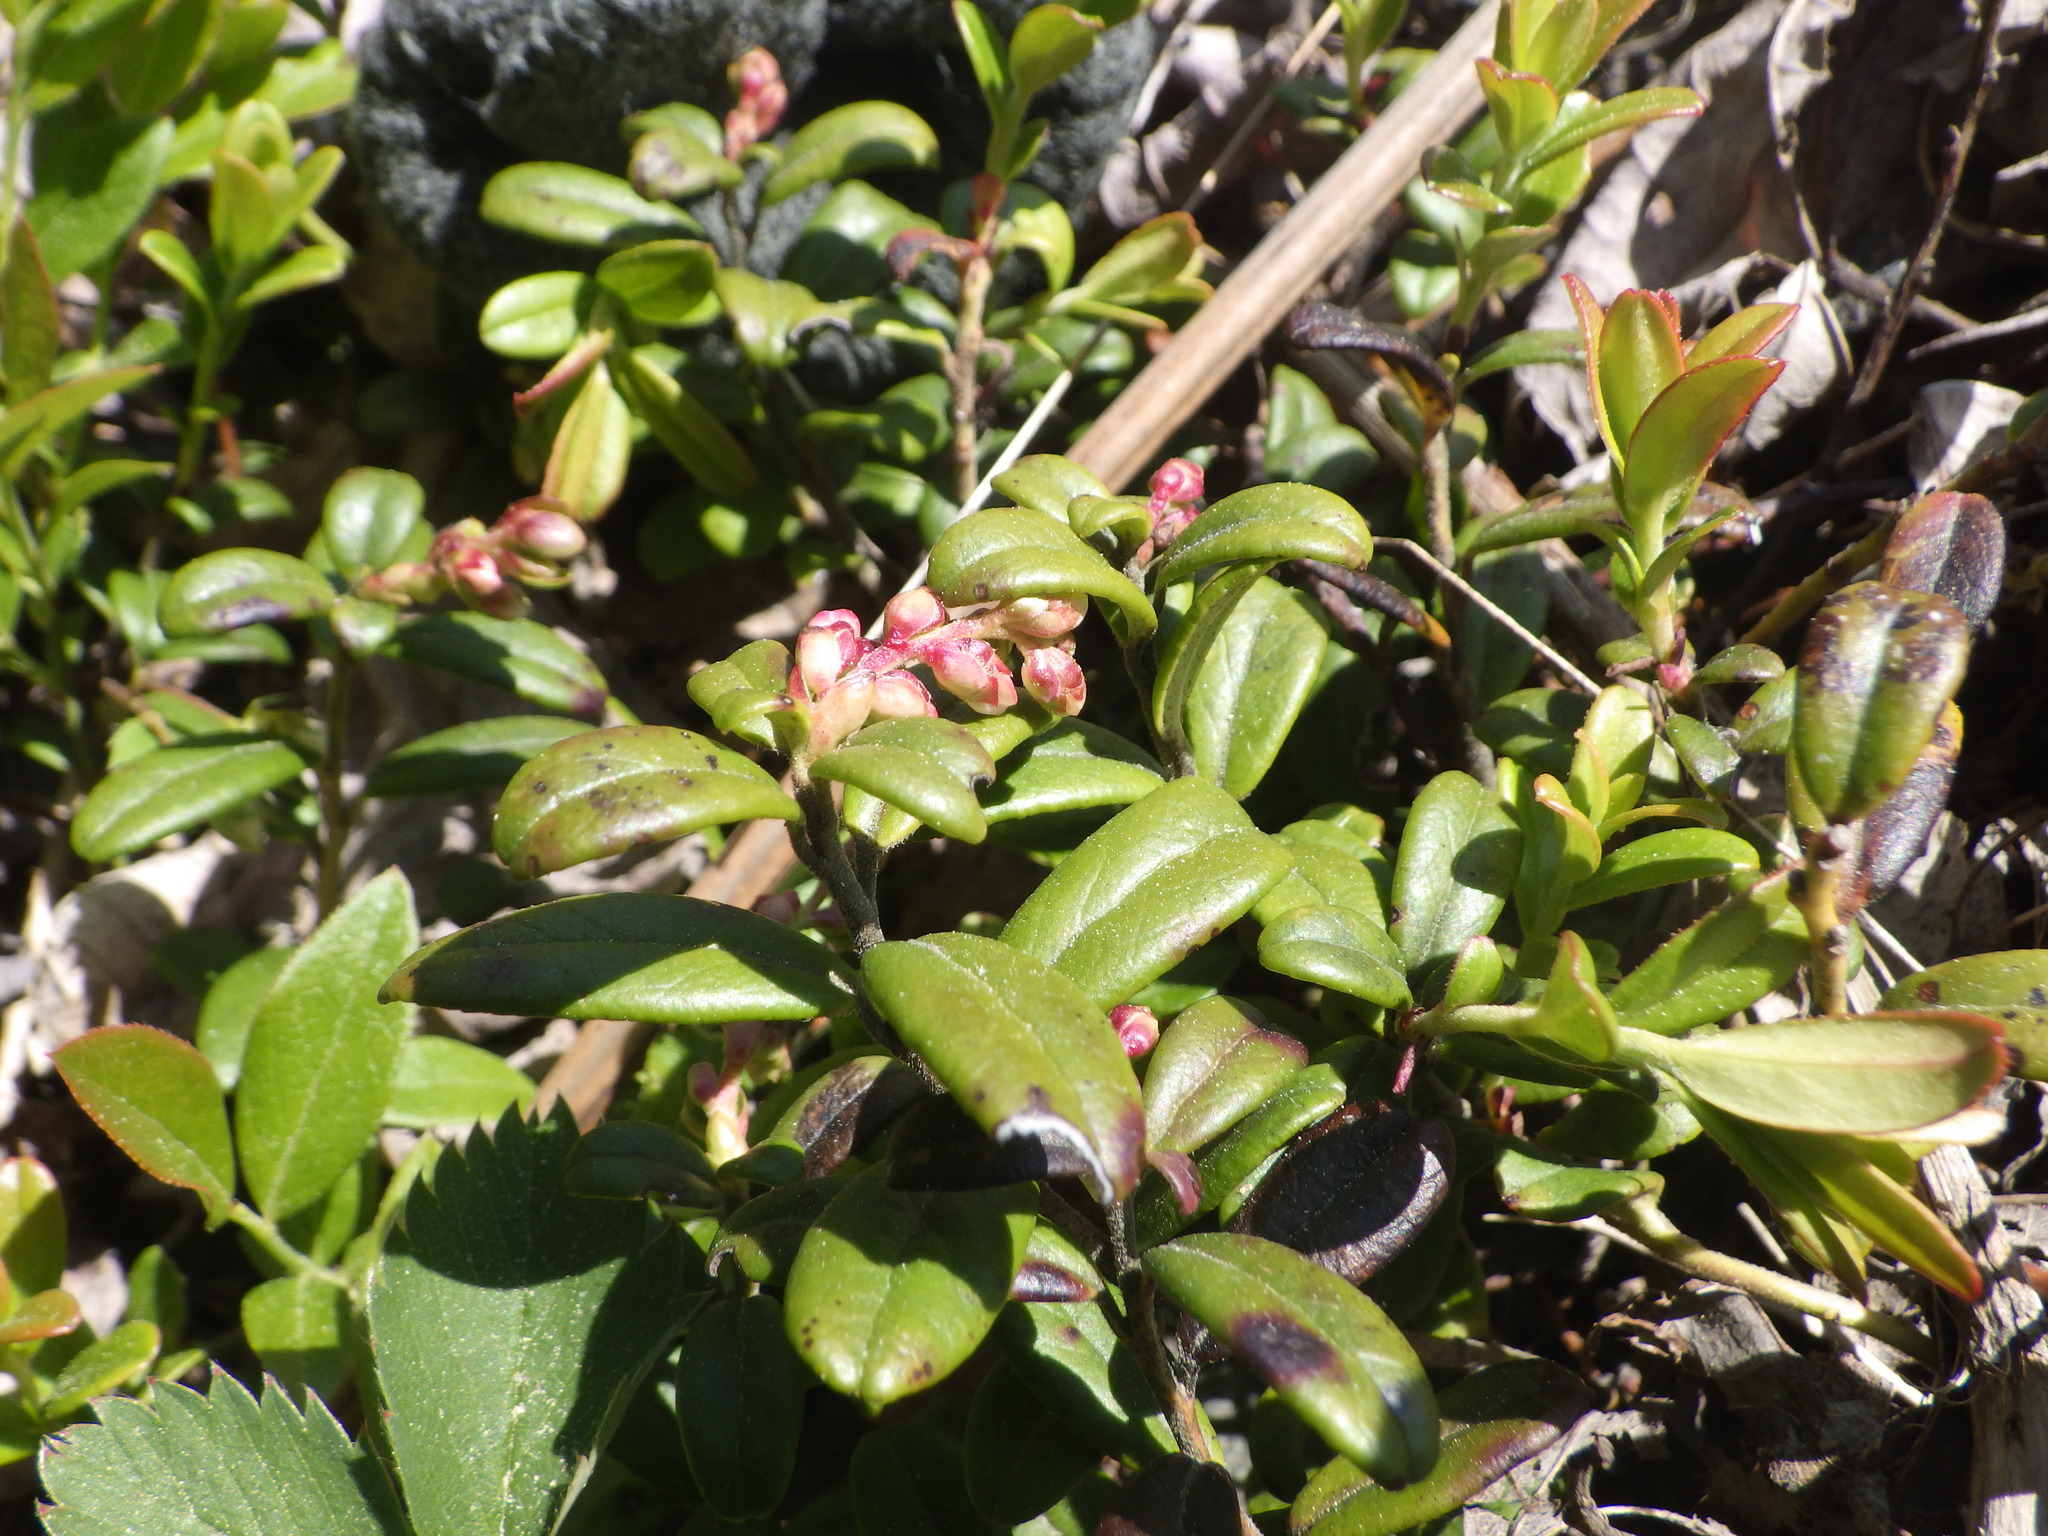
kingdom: Plantae
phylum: Tracheophyta
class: Magnoliopsida
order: Ericales
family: Ericaceae
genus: Vaccinium
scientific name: Vaccinium vitis-idaea
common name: Cowberry
